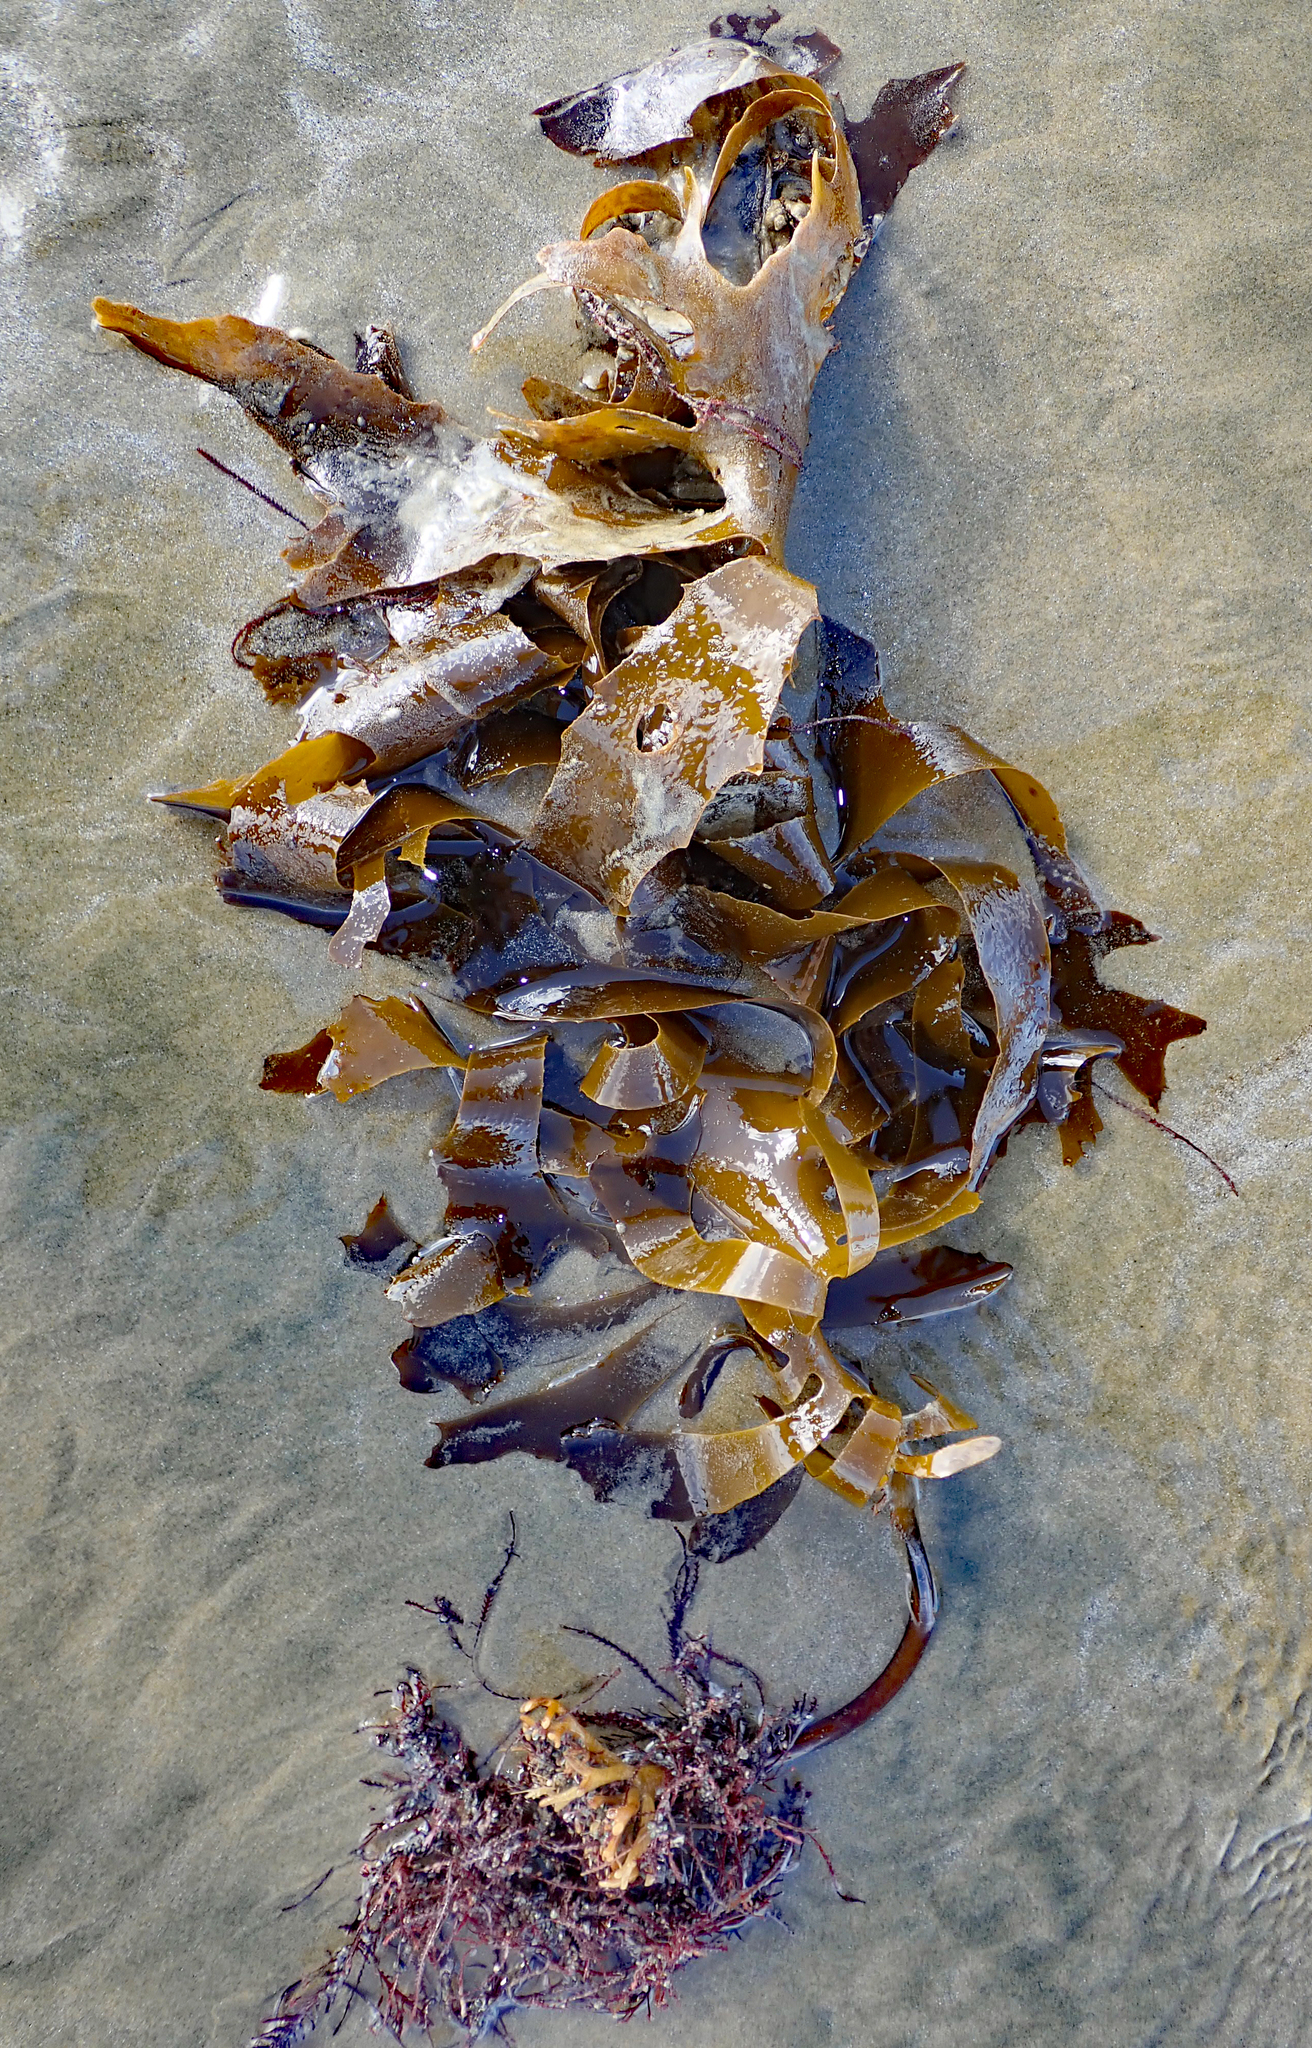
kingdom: Chromista
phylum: Ochrophyta
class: Phaeophyceae
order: Laminariales
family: Lessoniaceae
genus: Ecklonia
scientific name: Ecklonia radiata
